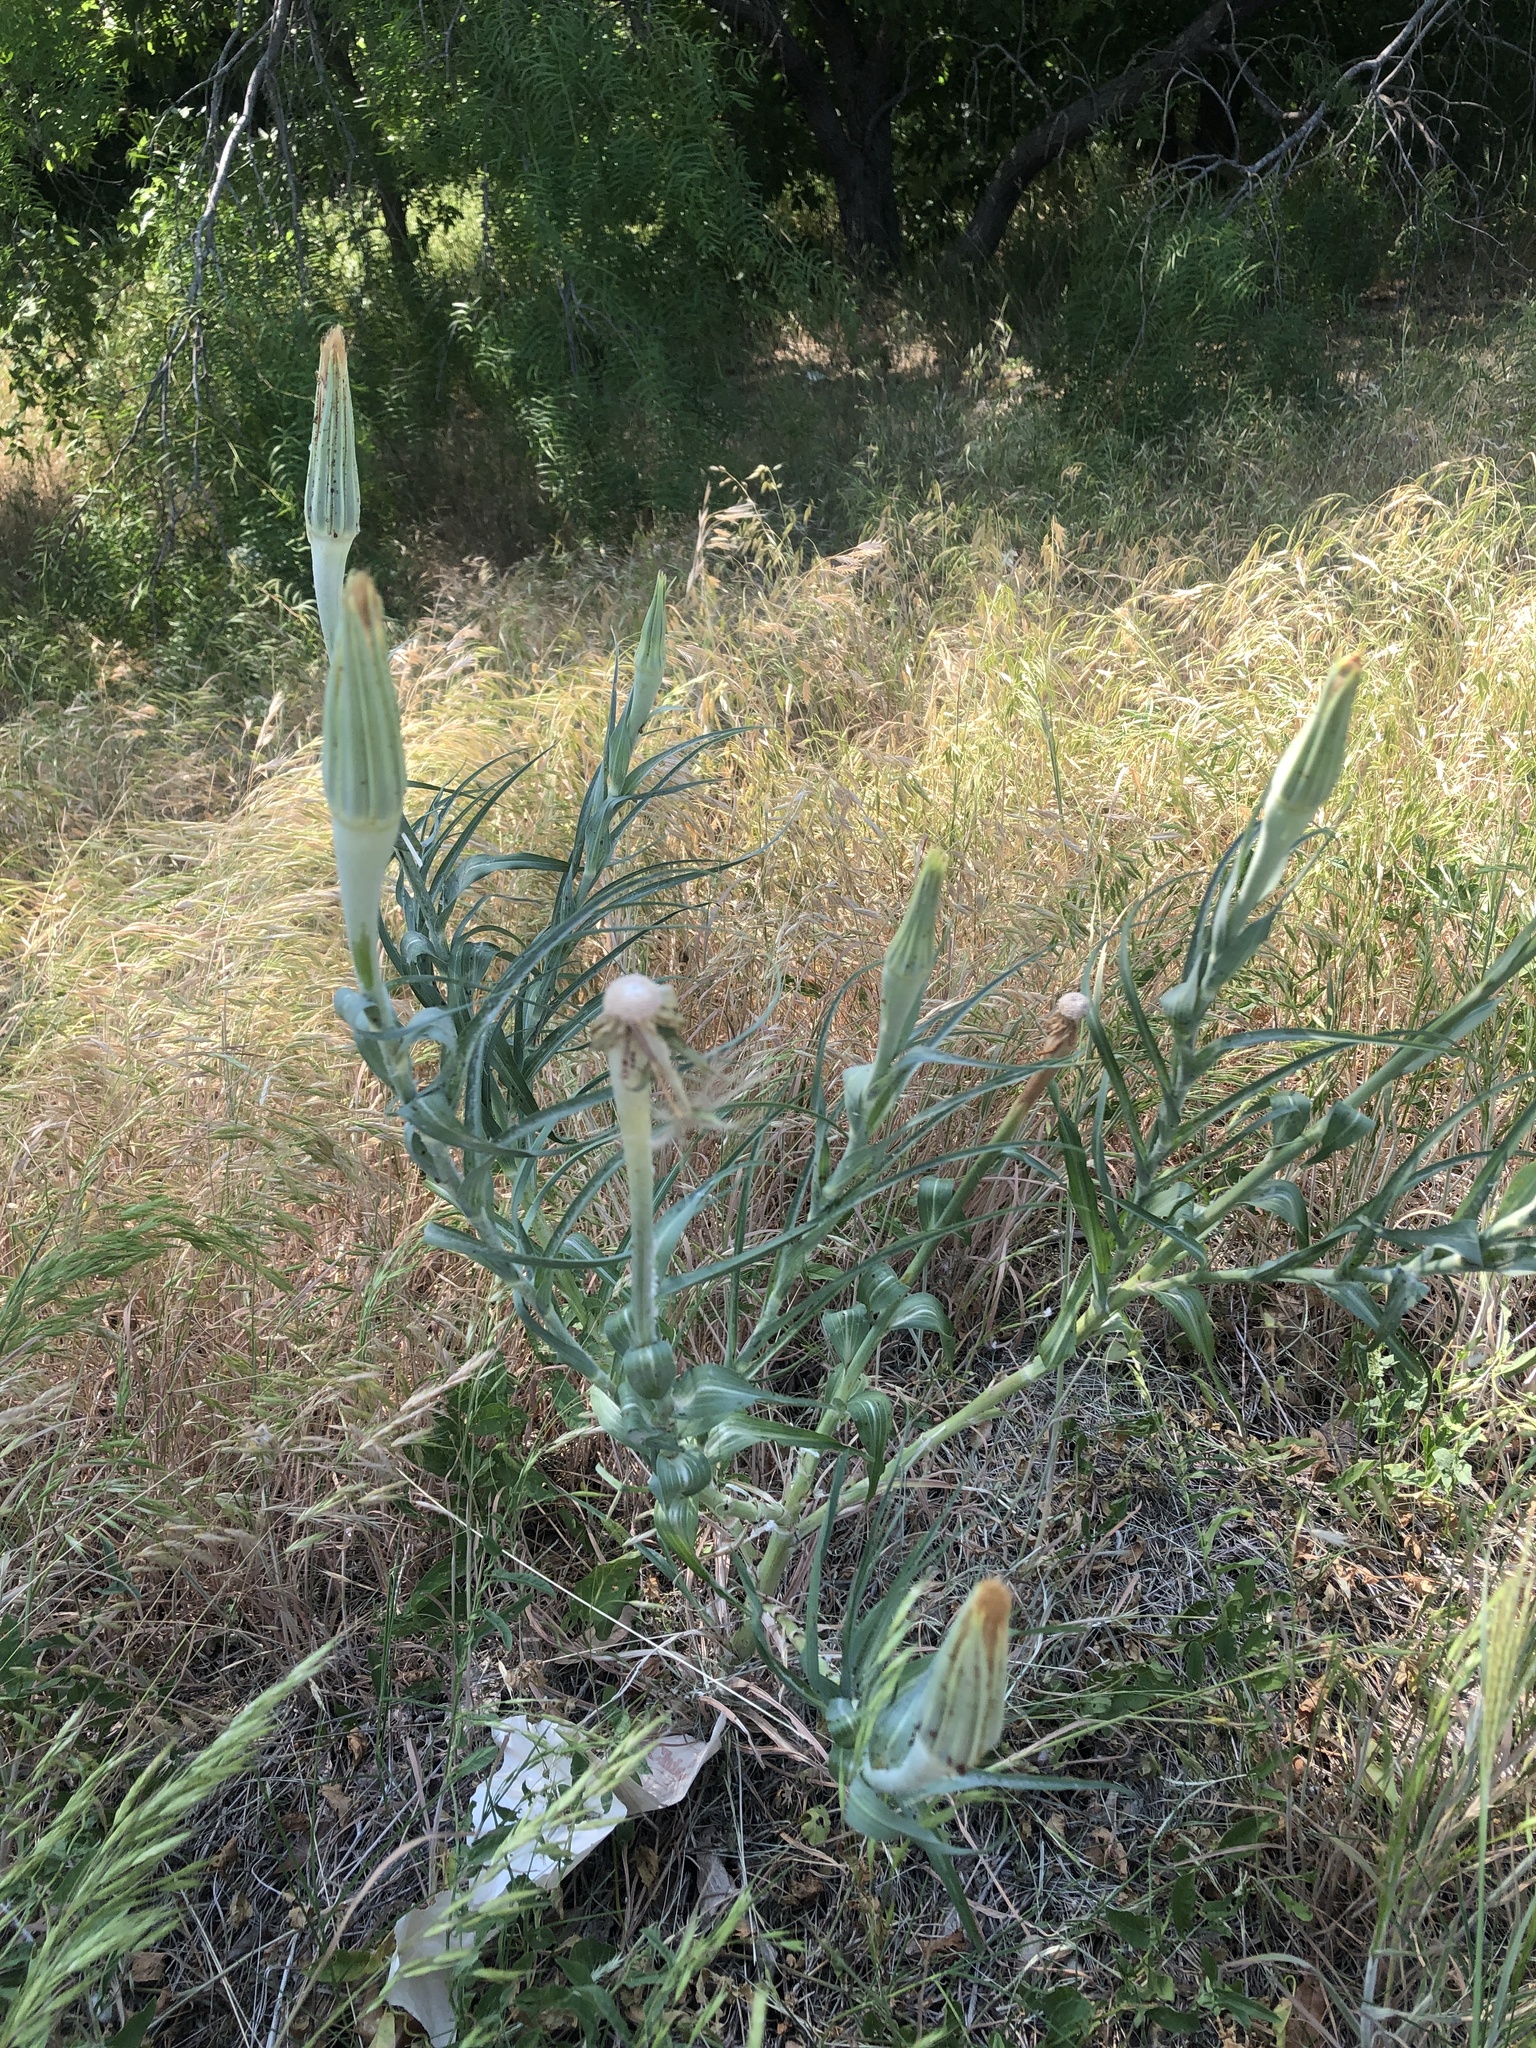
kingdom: Plantae
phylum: Tracheophyta
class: Magnoliopsida
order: Asterales
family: Asteraceae
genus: Tragopogon
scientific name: Tragopogon dubius
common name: Yellow salsify
